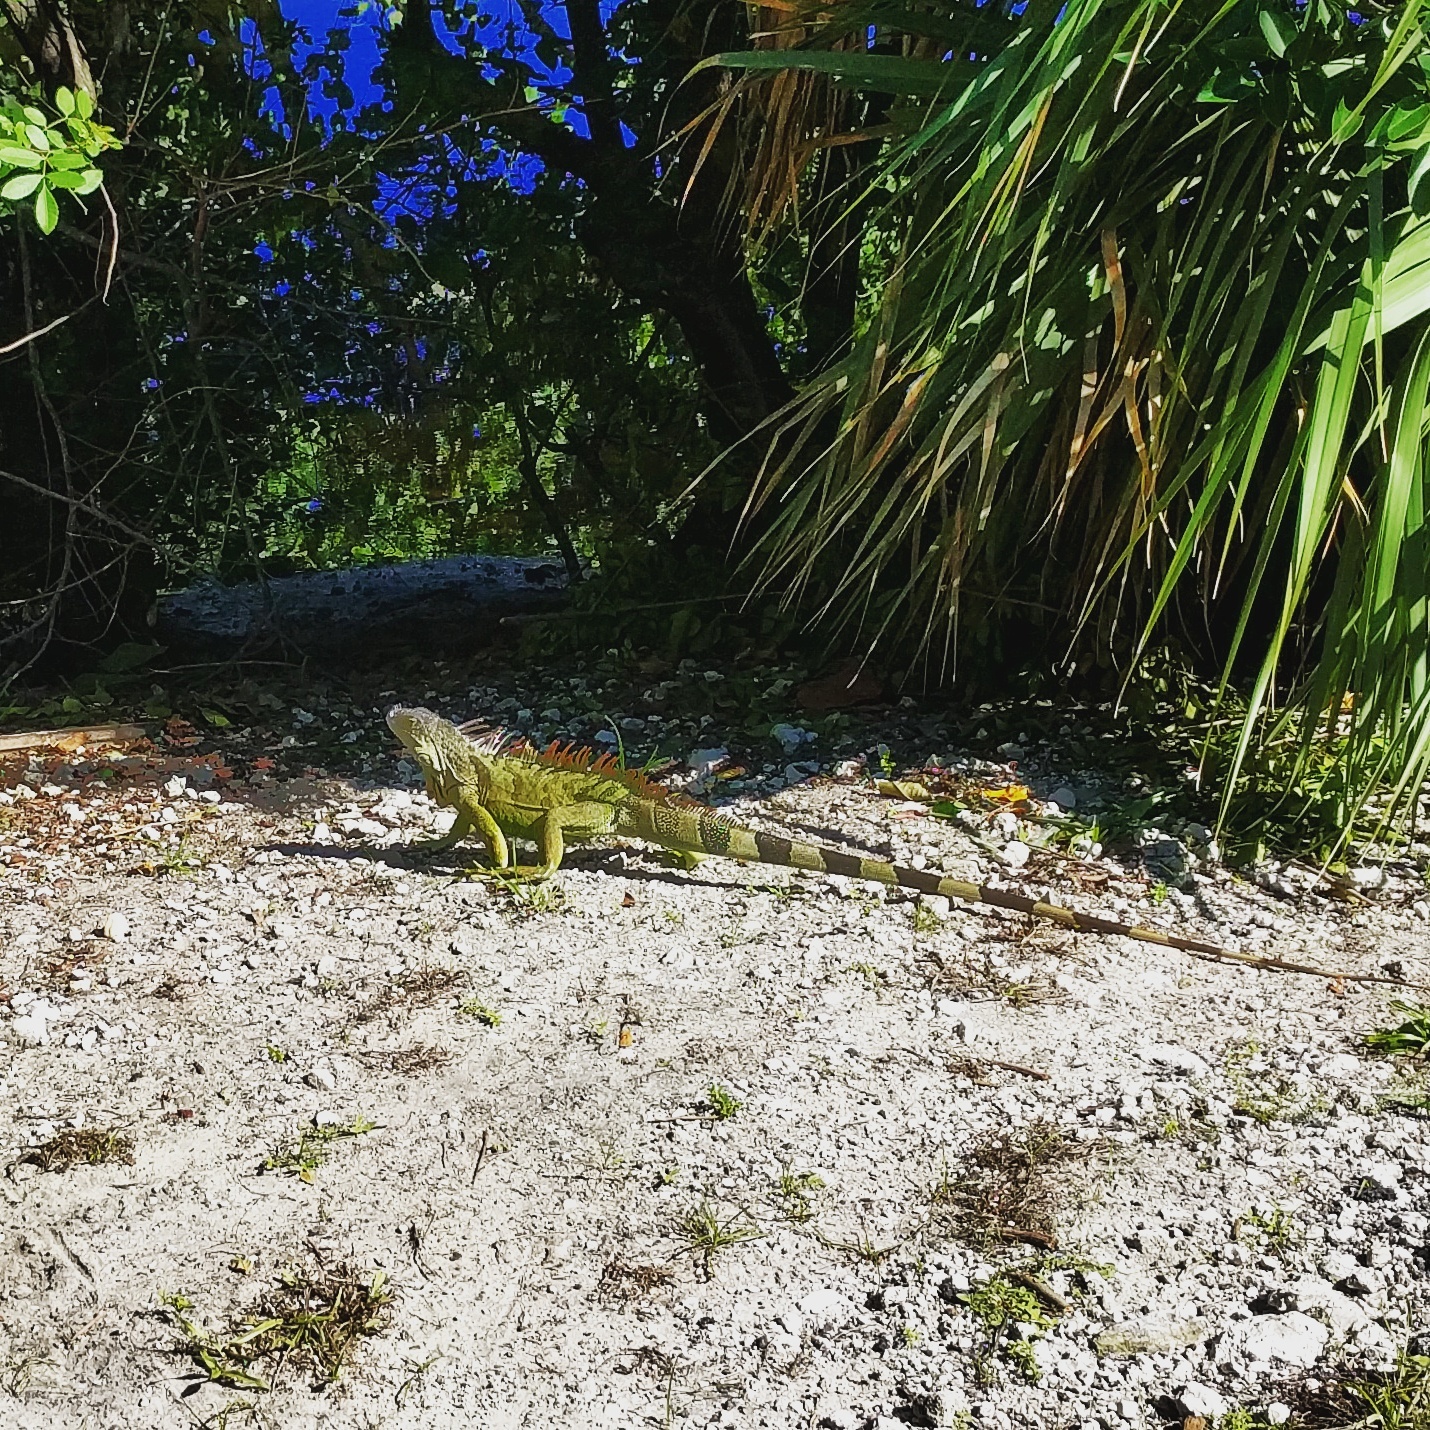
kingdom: Animalia
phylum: Chordata
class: Squamata
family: Iguanidae
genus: Iguana
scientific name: Iguana iguana
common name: Green iguana
